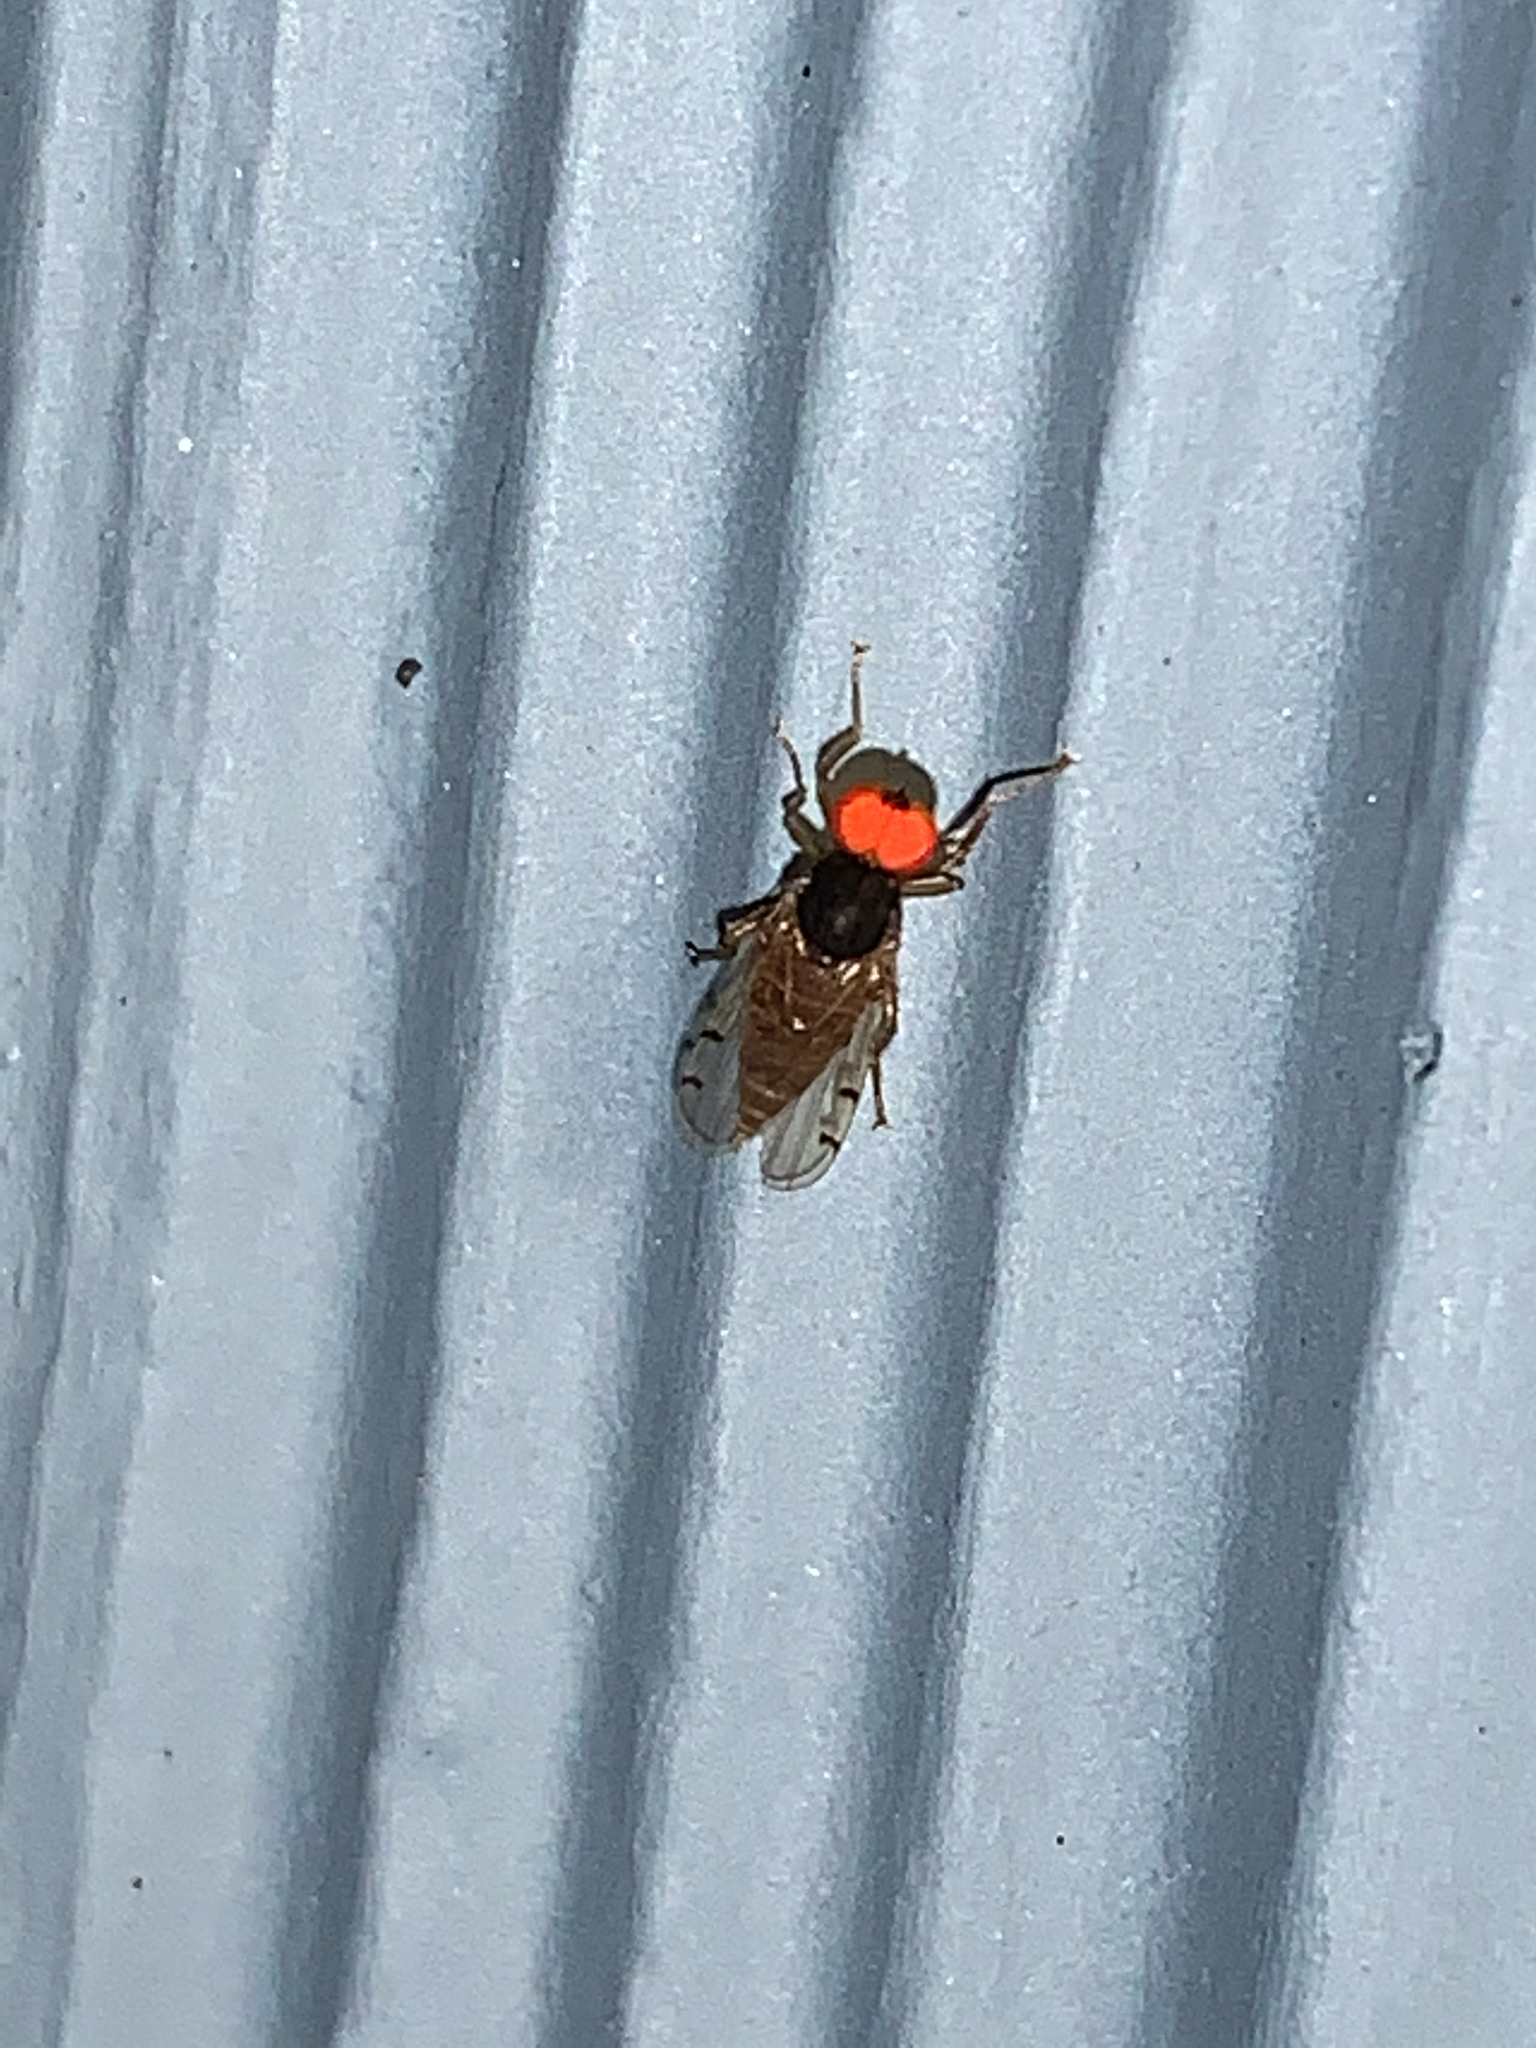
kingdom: Animalia
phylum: Arthropoda
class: Insecta
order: Diptera
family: Hybotidae
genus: Syneches
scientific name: Syneches simplex
